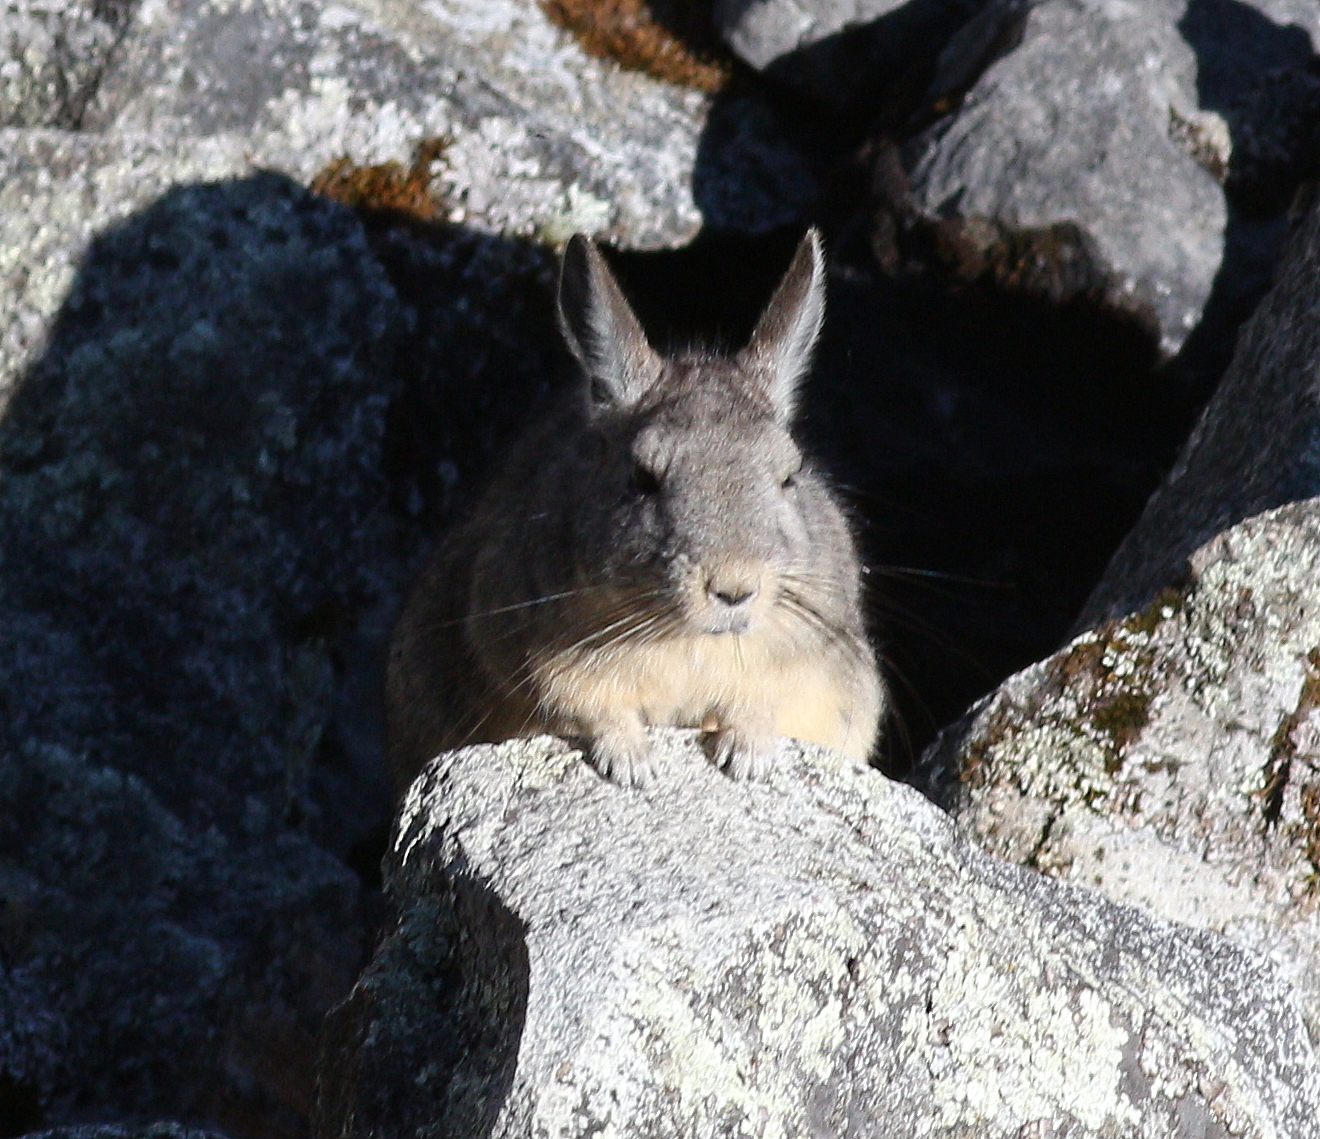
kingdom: Animalia
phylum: Chordata
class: Mammalia
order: Rodentia
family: Chinchillidae
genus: Lagidium
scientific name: Lagidium viscacia
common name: Southern viscacha
